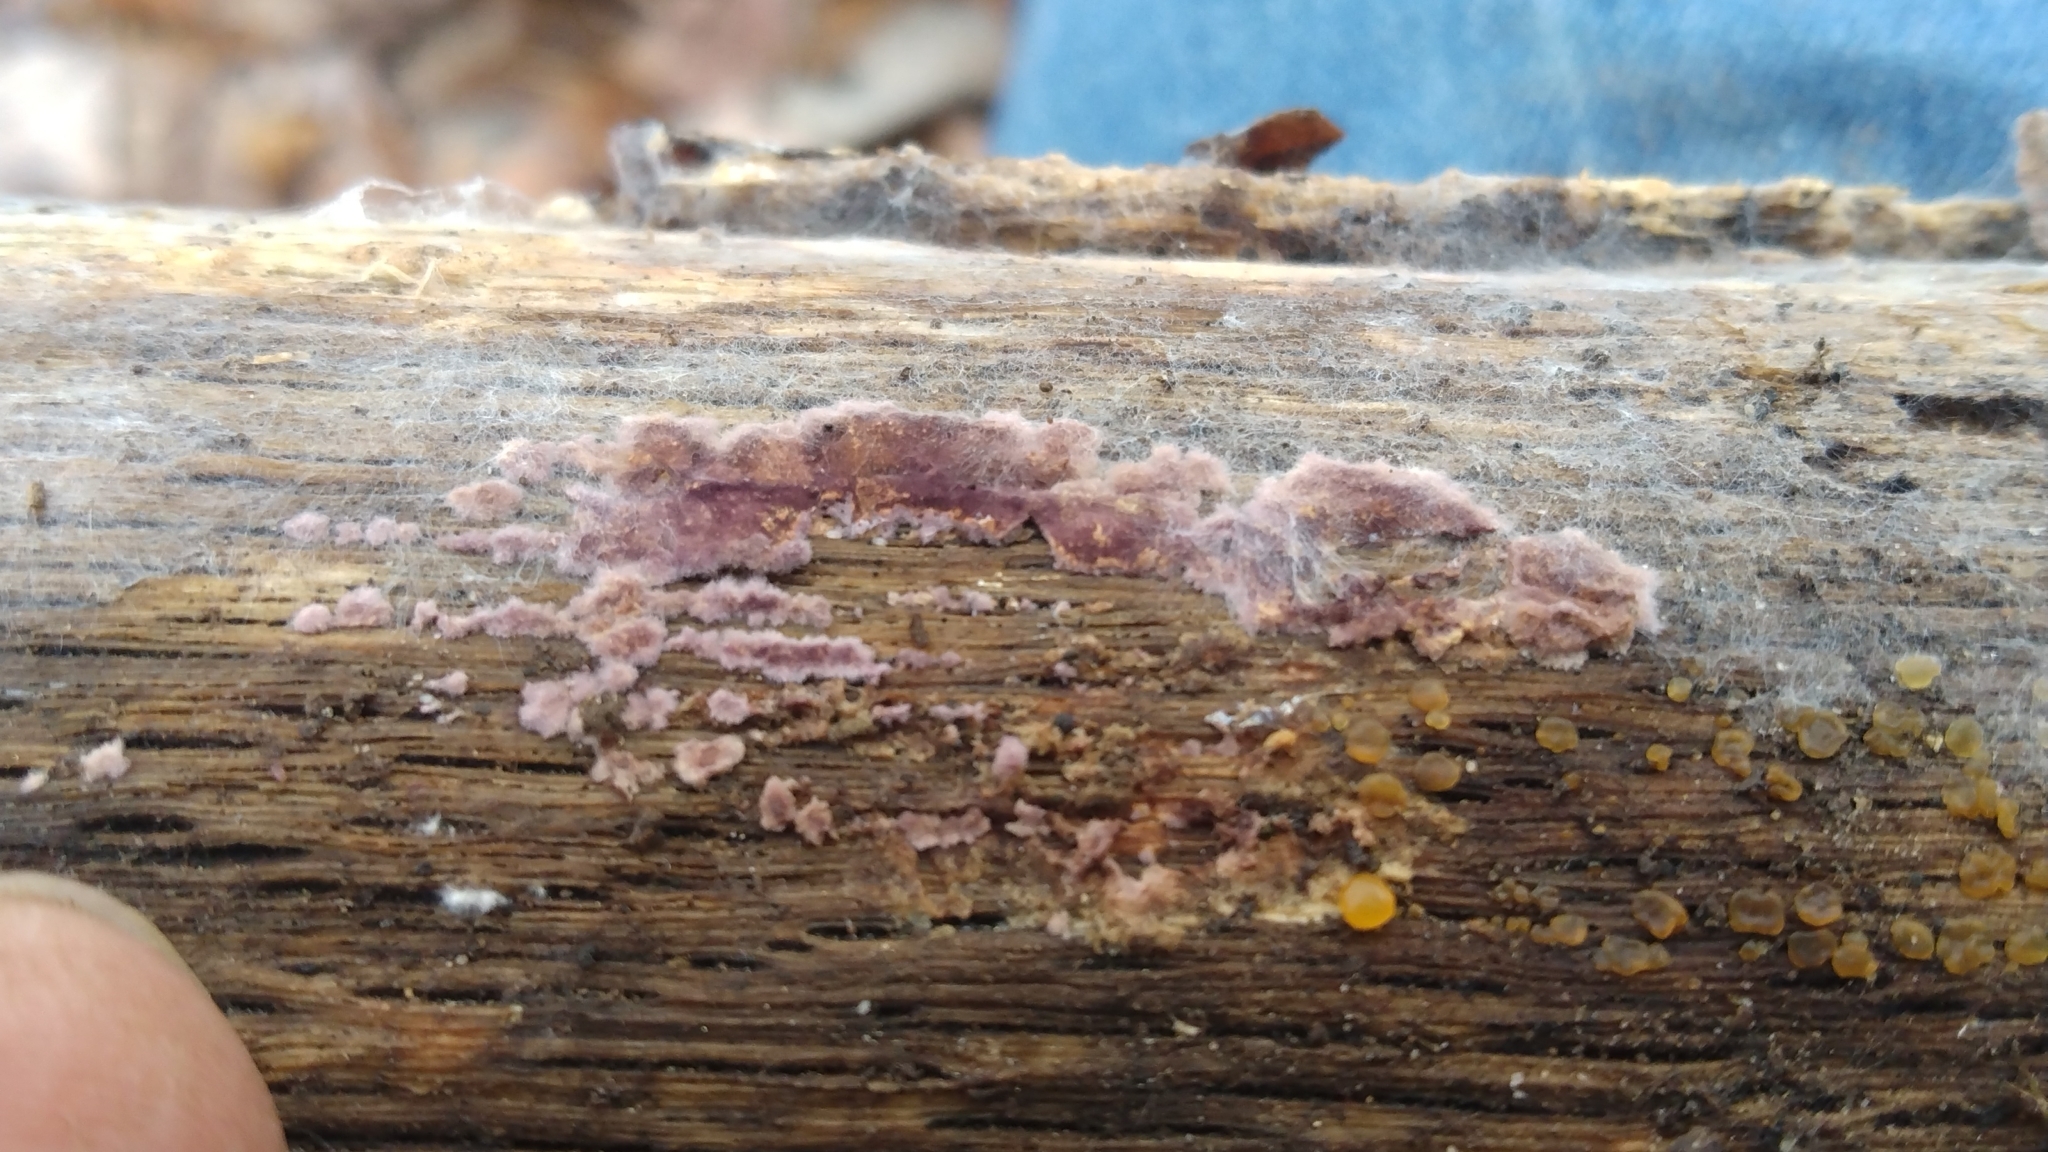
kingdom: Fungi
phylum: Basidiomycota
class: Agaricomycetes
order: Polyporales
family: Phanerochaetaceae
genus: Phlebiopsis
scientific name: Phlebiopsis crassa
